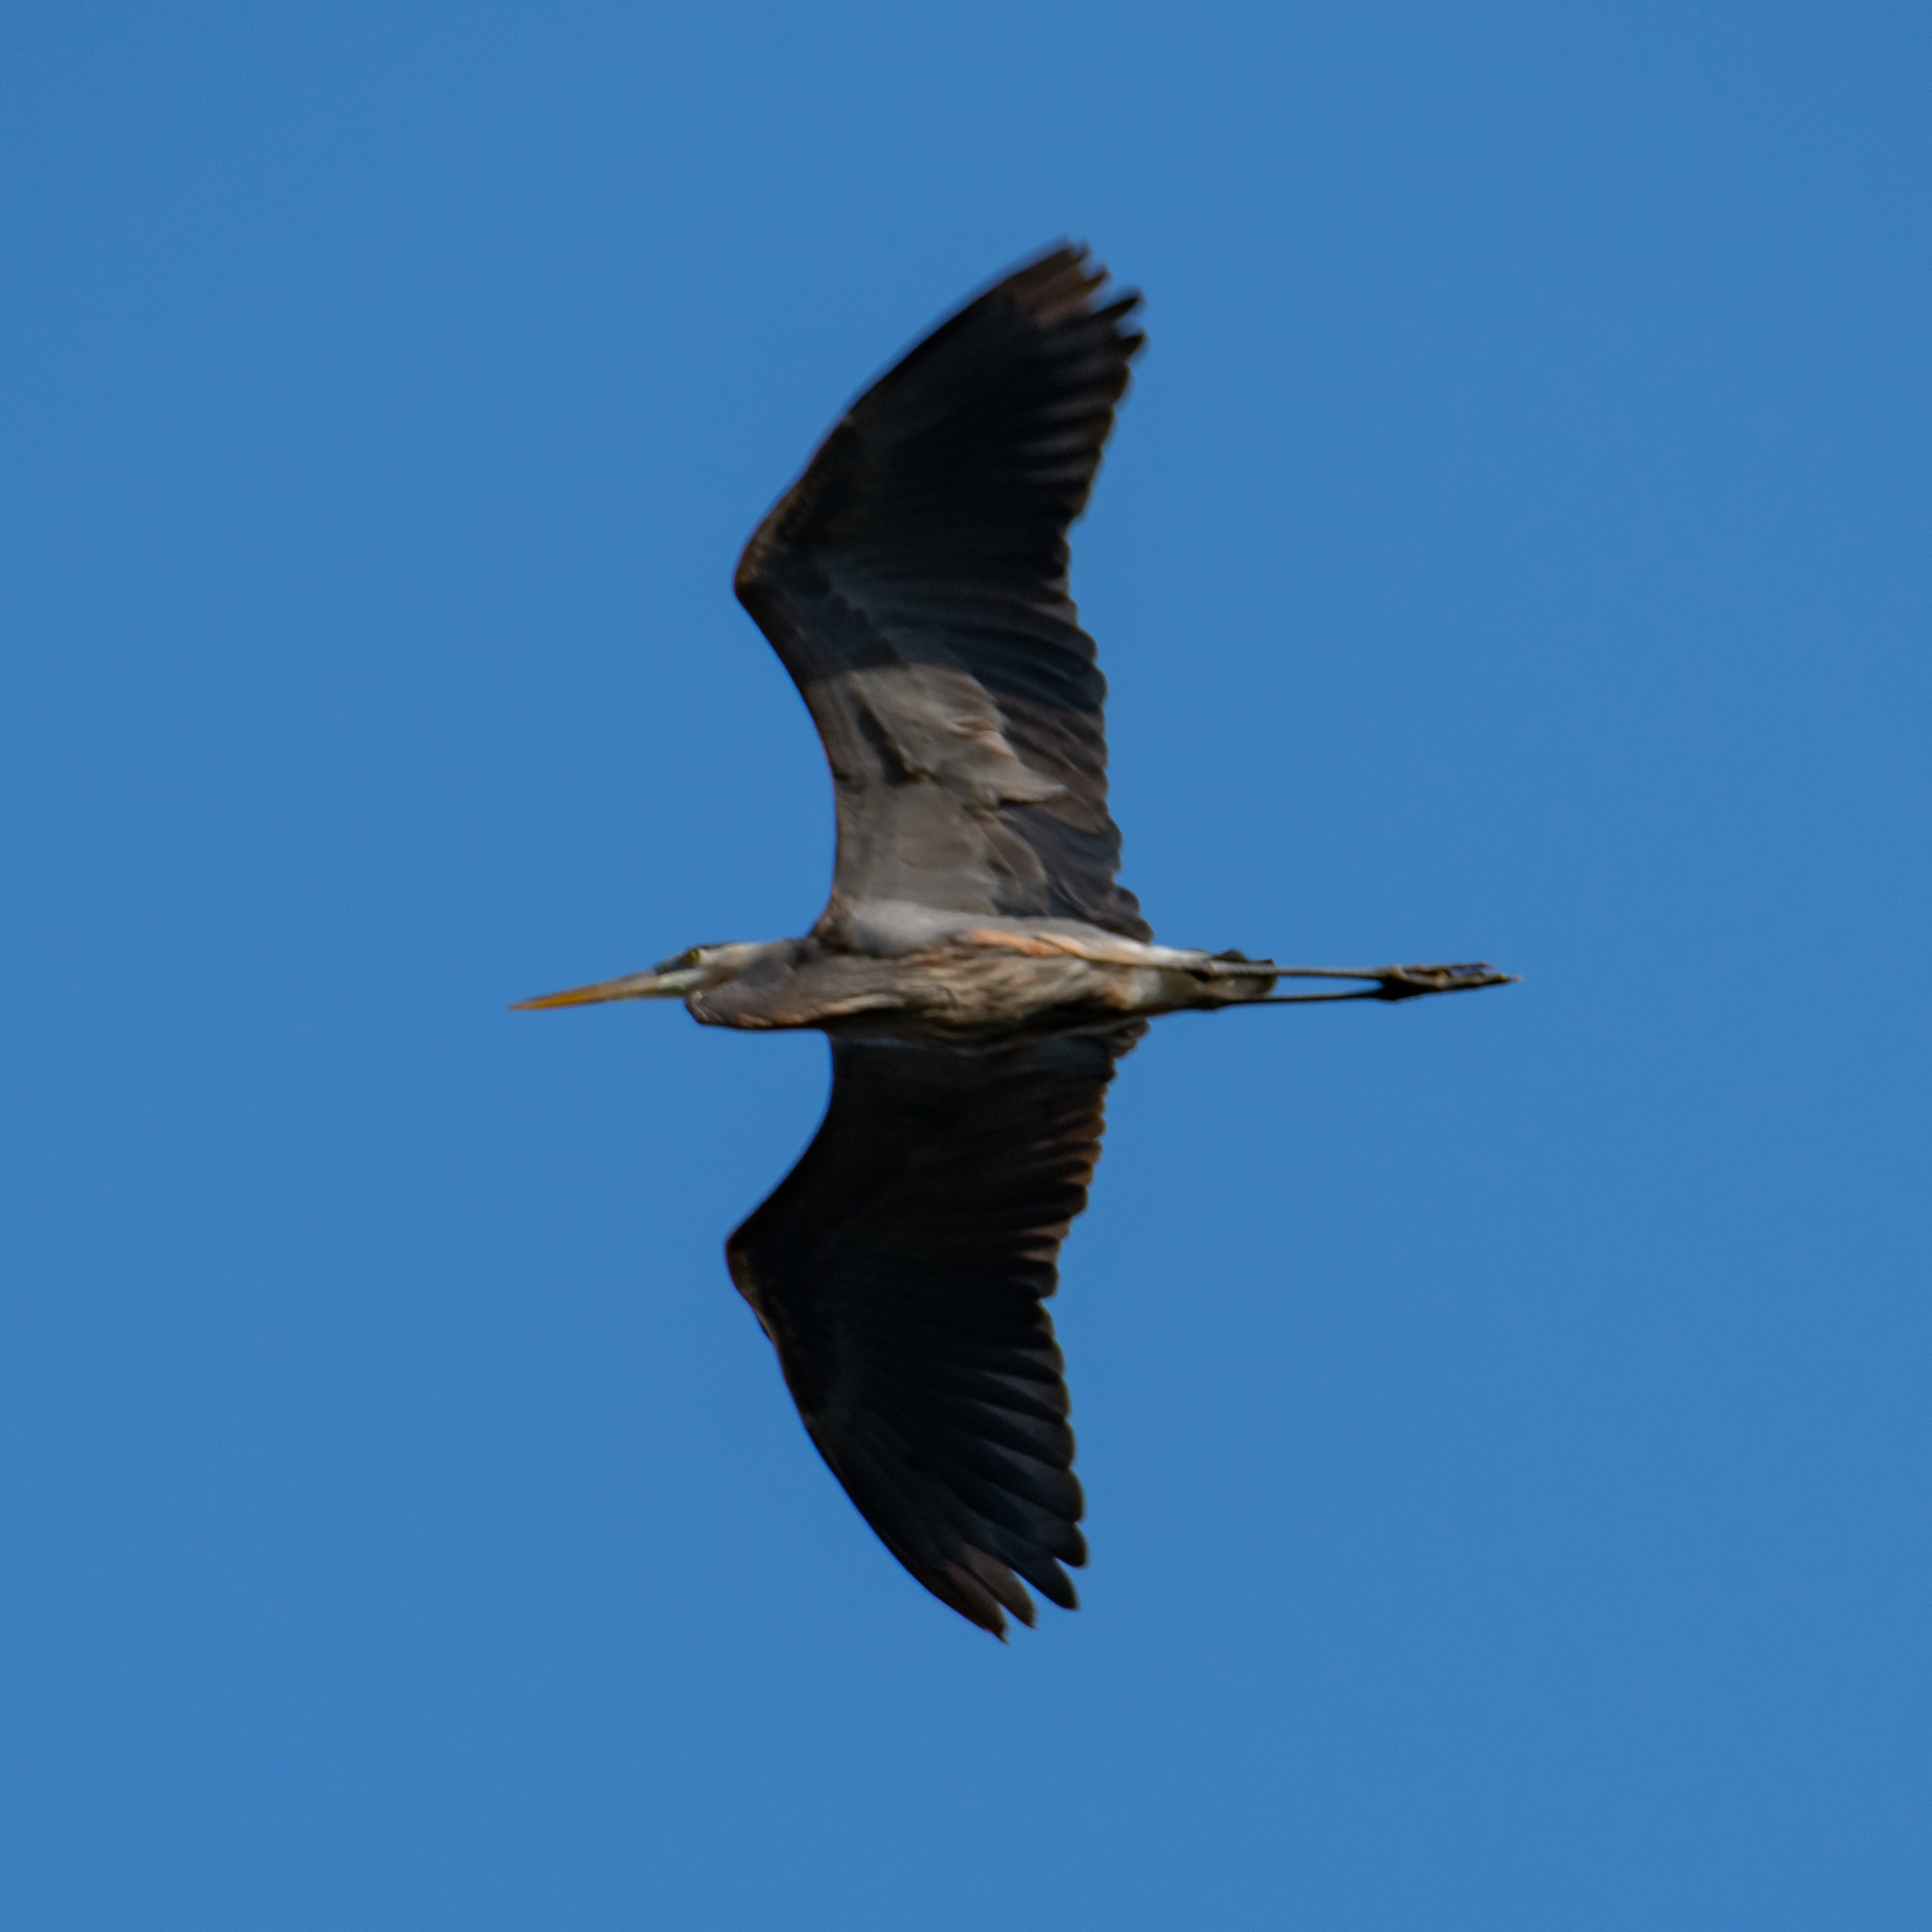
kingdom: Animalia
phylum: Chordata
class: Aves
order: Pelecaniformes
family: Ardeidae
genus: Ardea
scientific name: Ardea herodias
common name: Great blue heron
